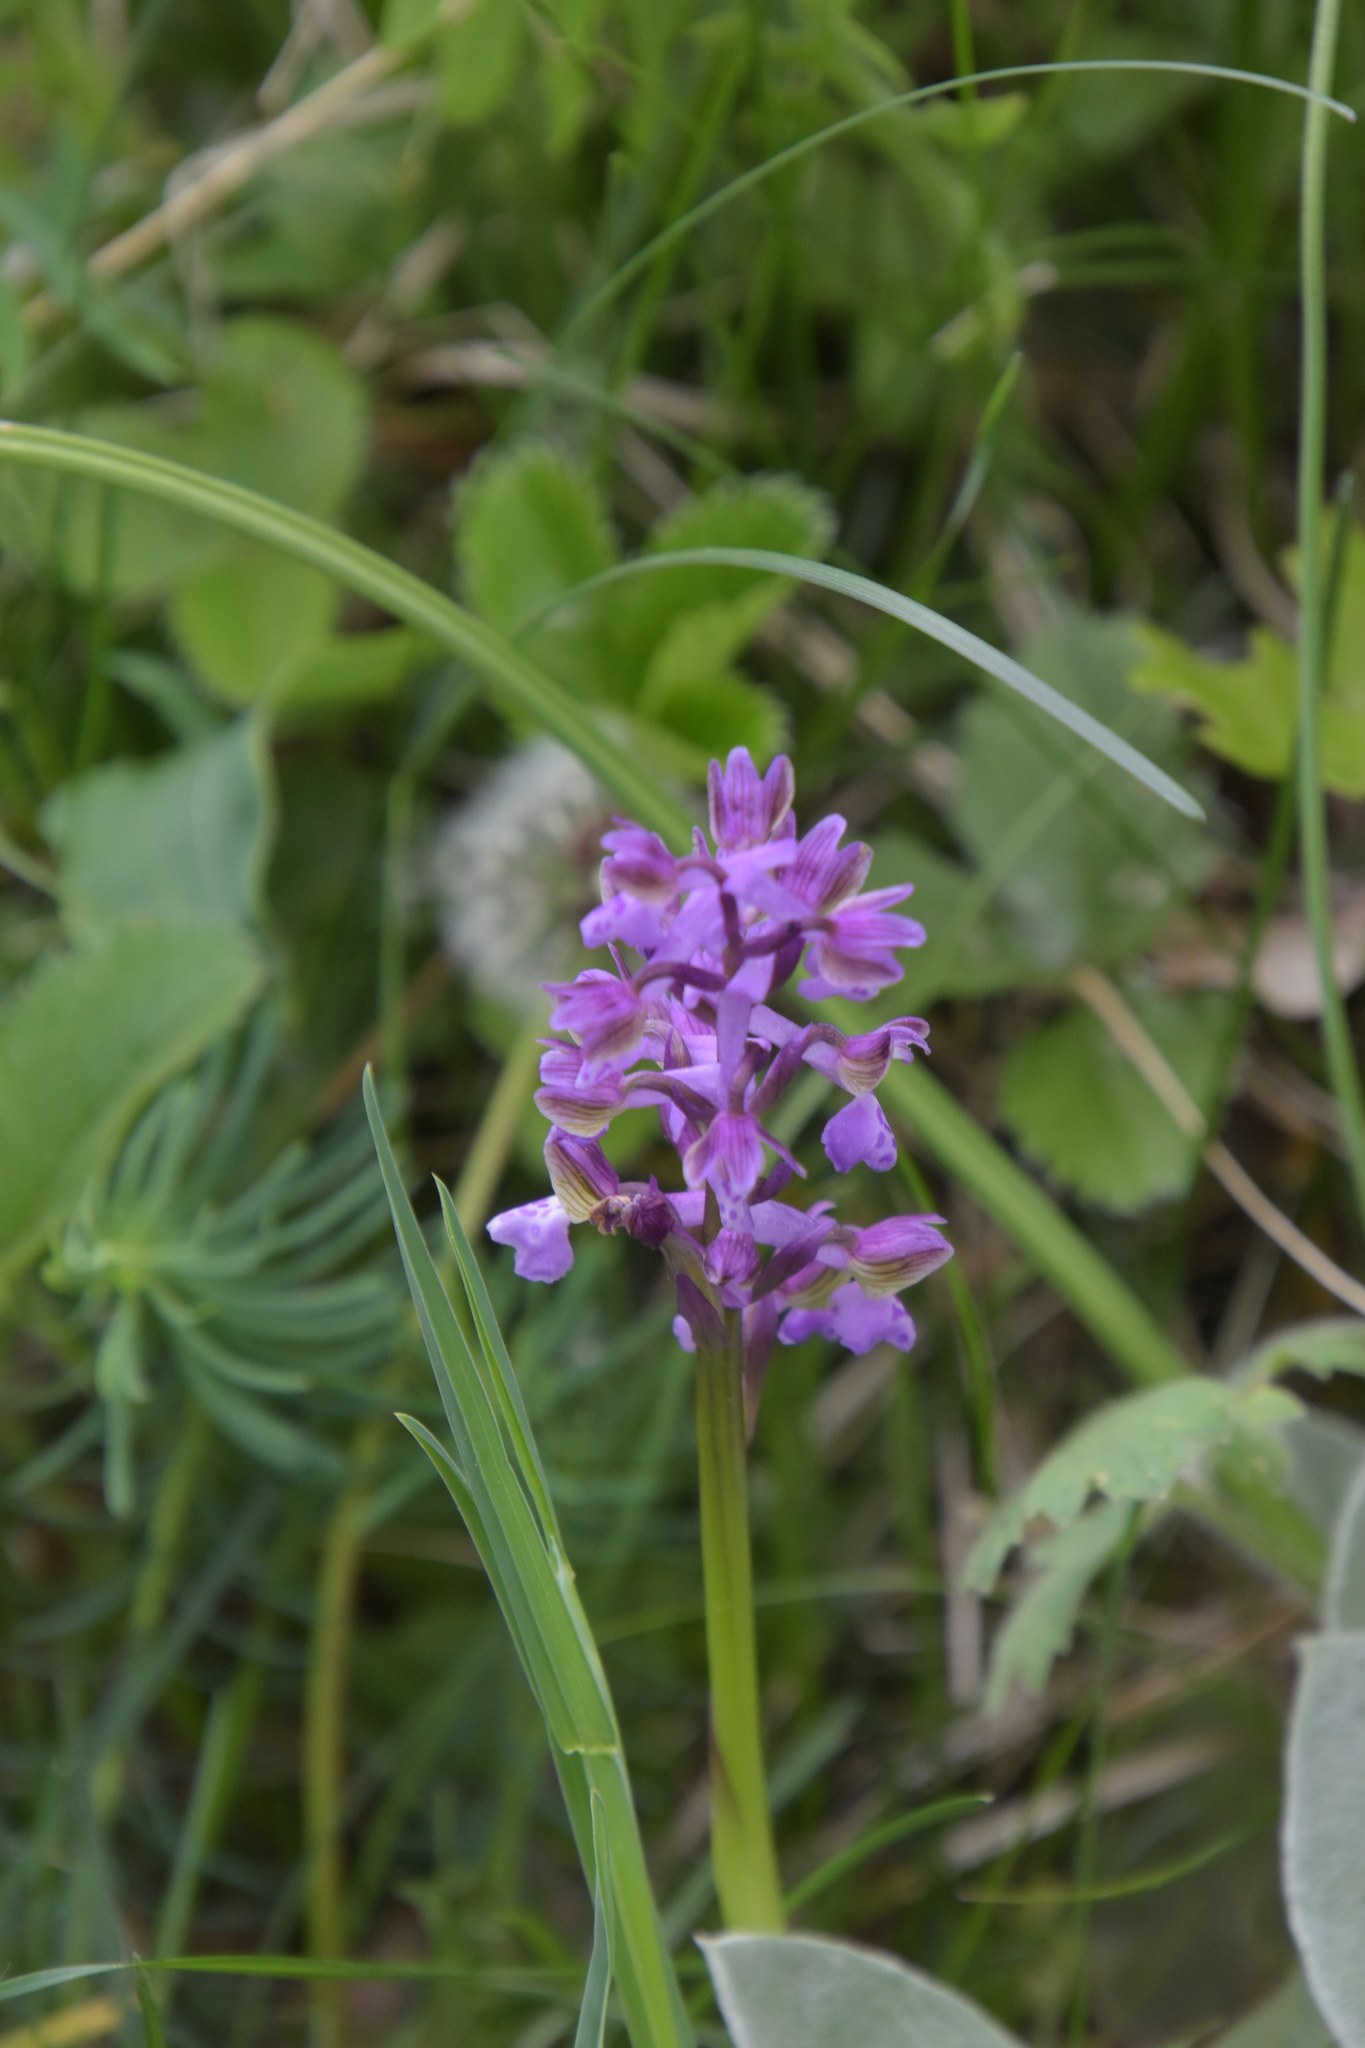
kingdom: Plantae
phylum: Tracheophyta
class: Liliopsida
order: Asparagales
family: Orchidaceae
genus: Anacamptis
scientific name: Anacamptis morio
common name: Green-winged orchid
